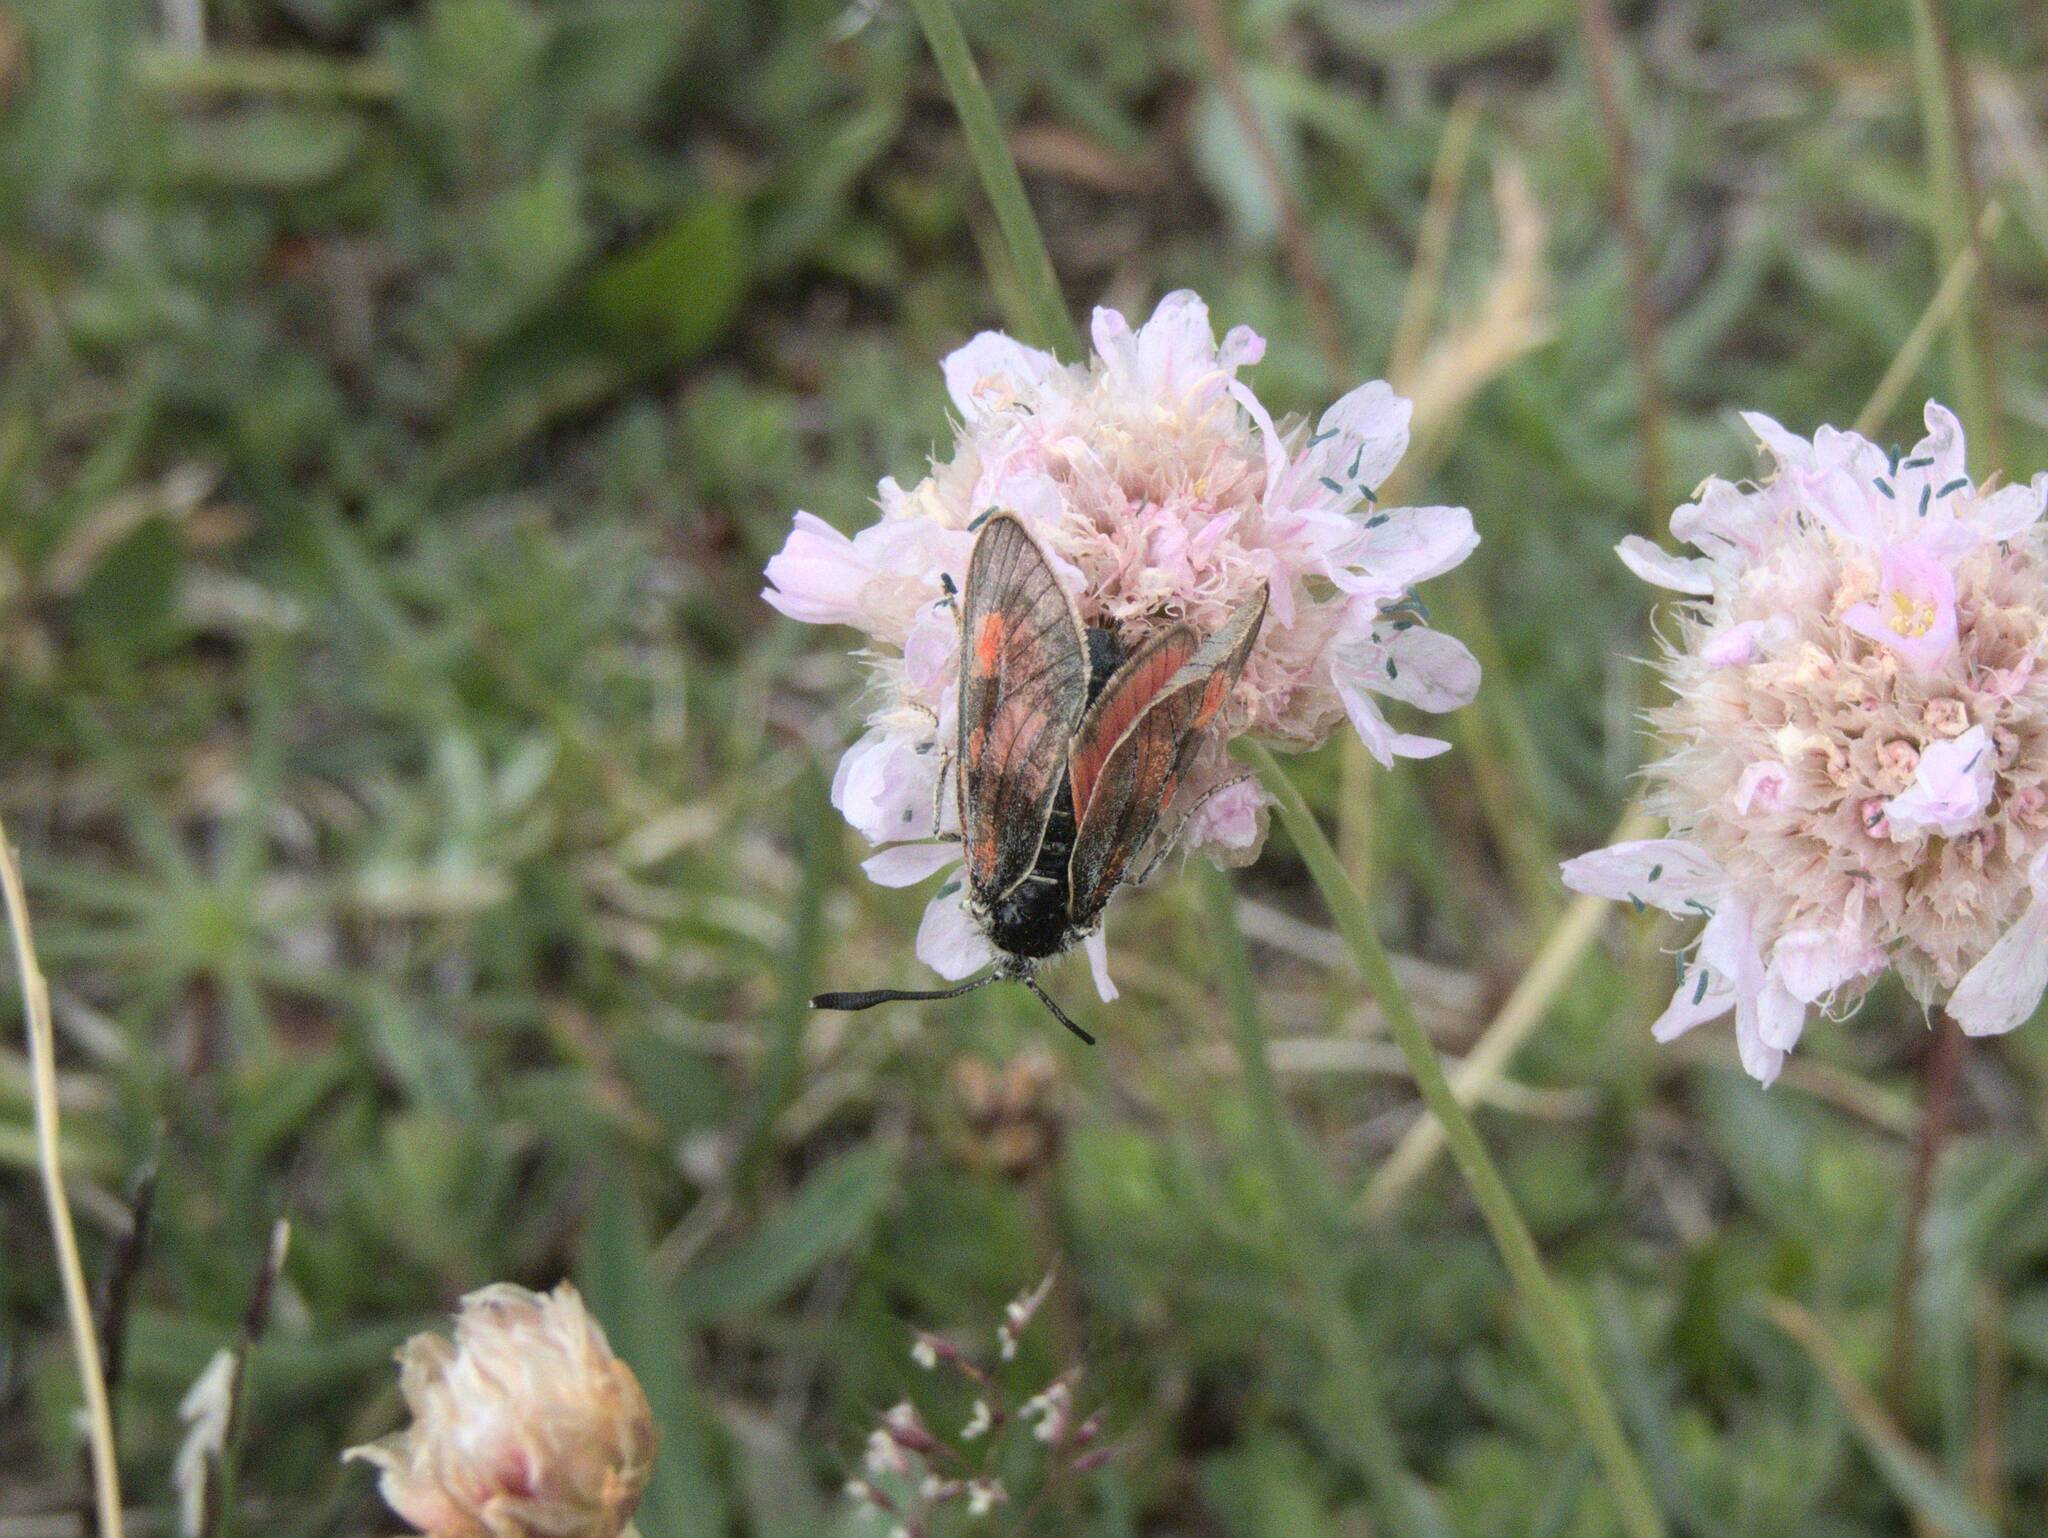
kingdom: Animalia
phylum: Arthropoda
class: Insecta
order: Lepidoptera
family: Zygaenidae
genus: Zygaena
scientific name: Zygaena exulans
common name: Scotch burnet
